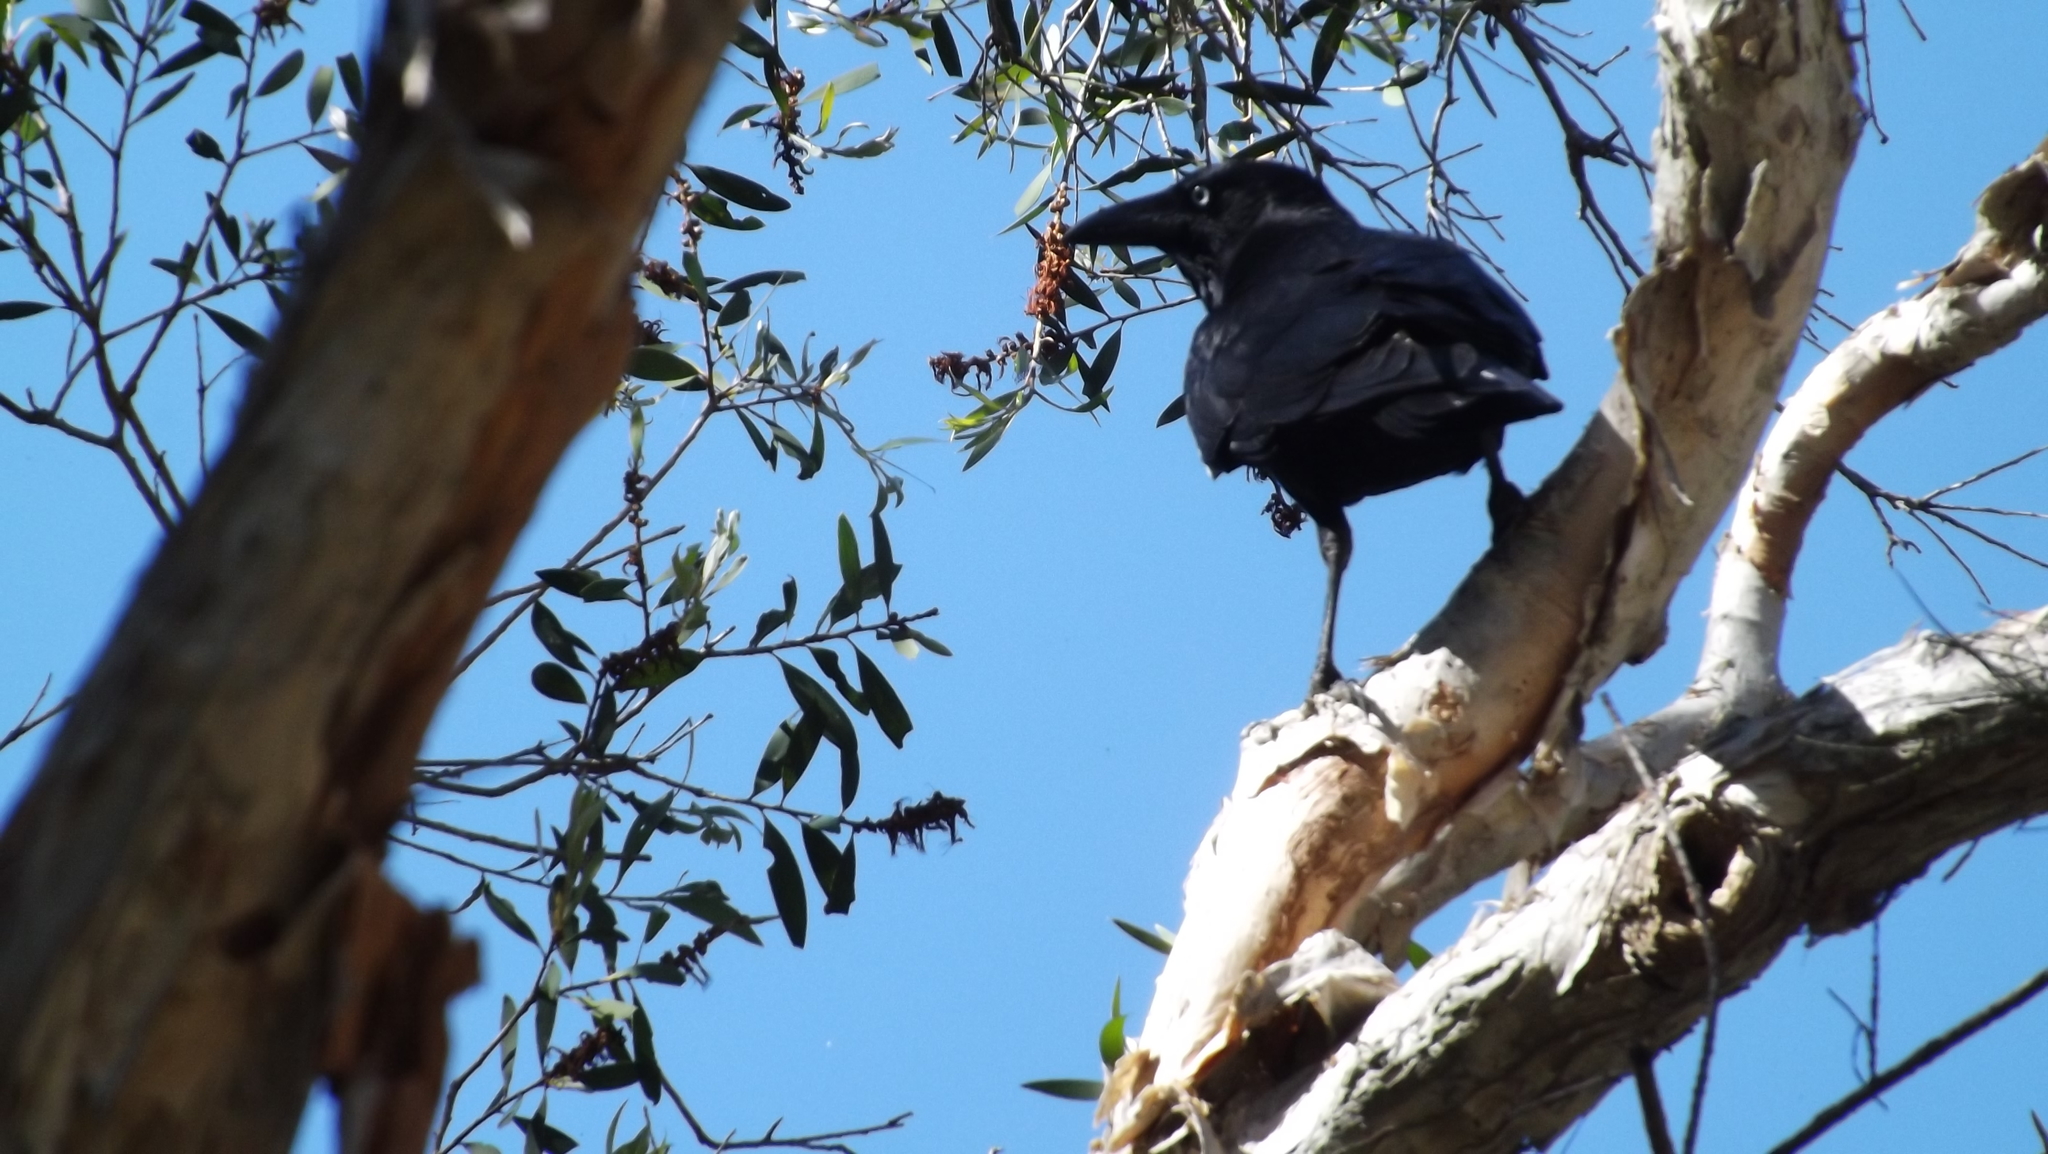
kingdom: Animalia
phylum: Chordata
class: Aves
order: Passeriformes
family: Corvidae
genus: Corvus
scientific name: Corvus orru
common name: Torresian crow
